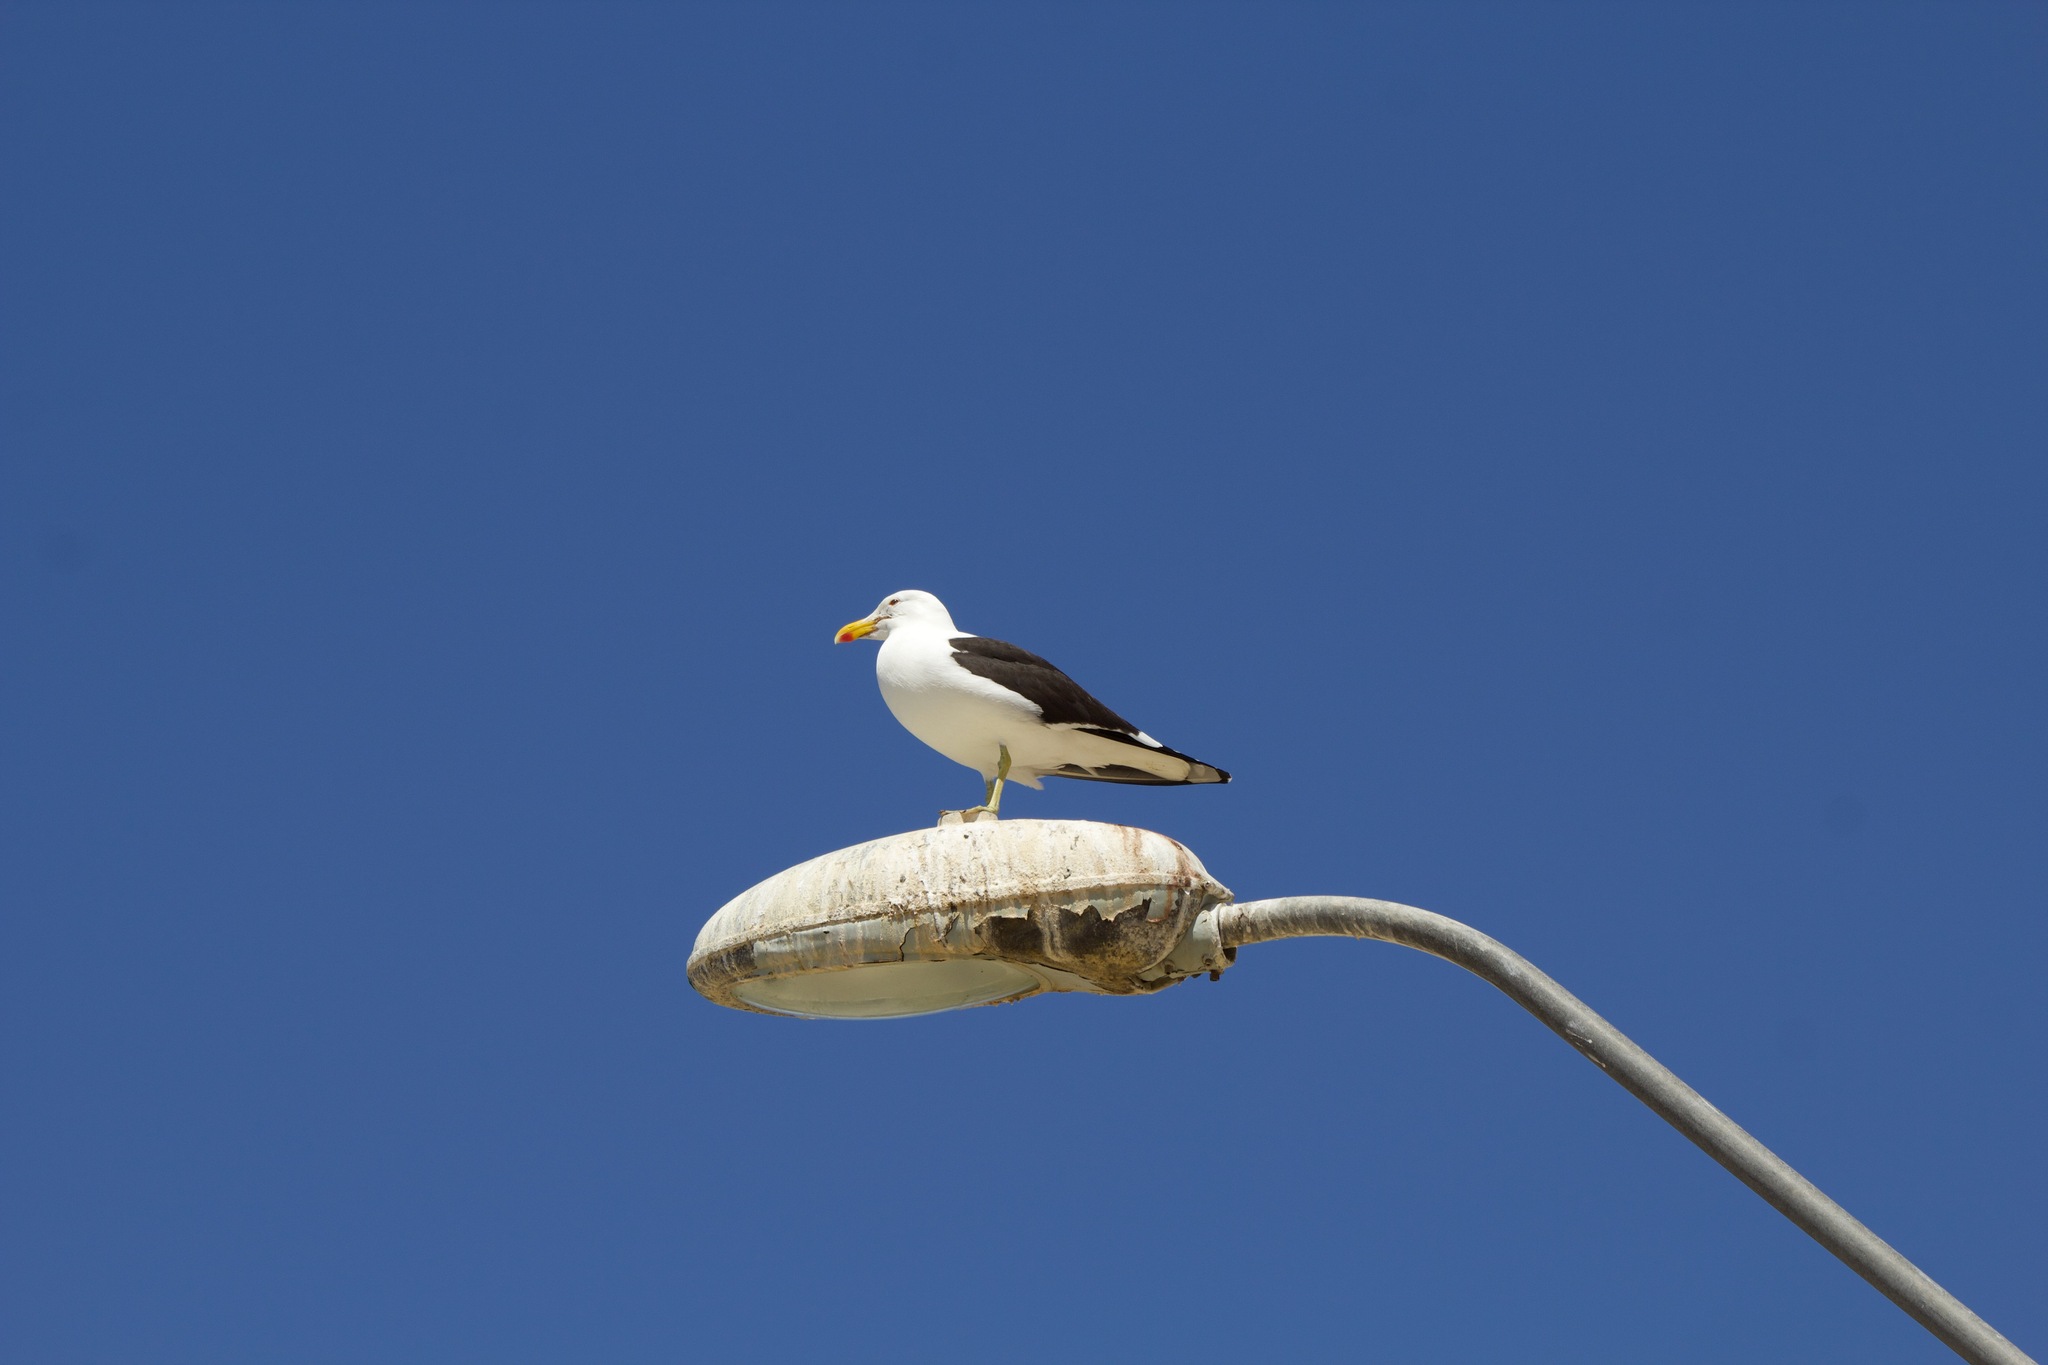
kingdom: Animalia
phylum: Chordata
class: Aves
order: Charadriiformes
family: Laridae
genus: Larus
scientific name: Larus dominicanus
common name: Kelp gull
